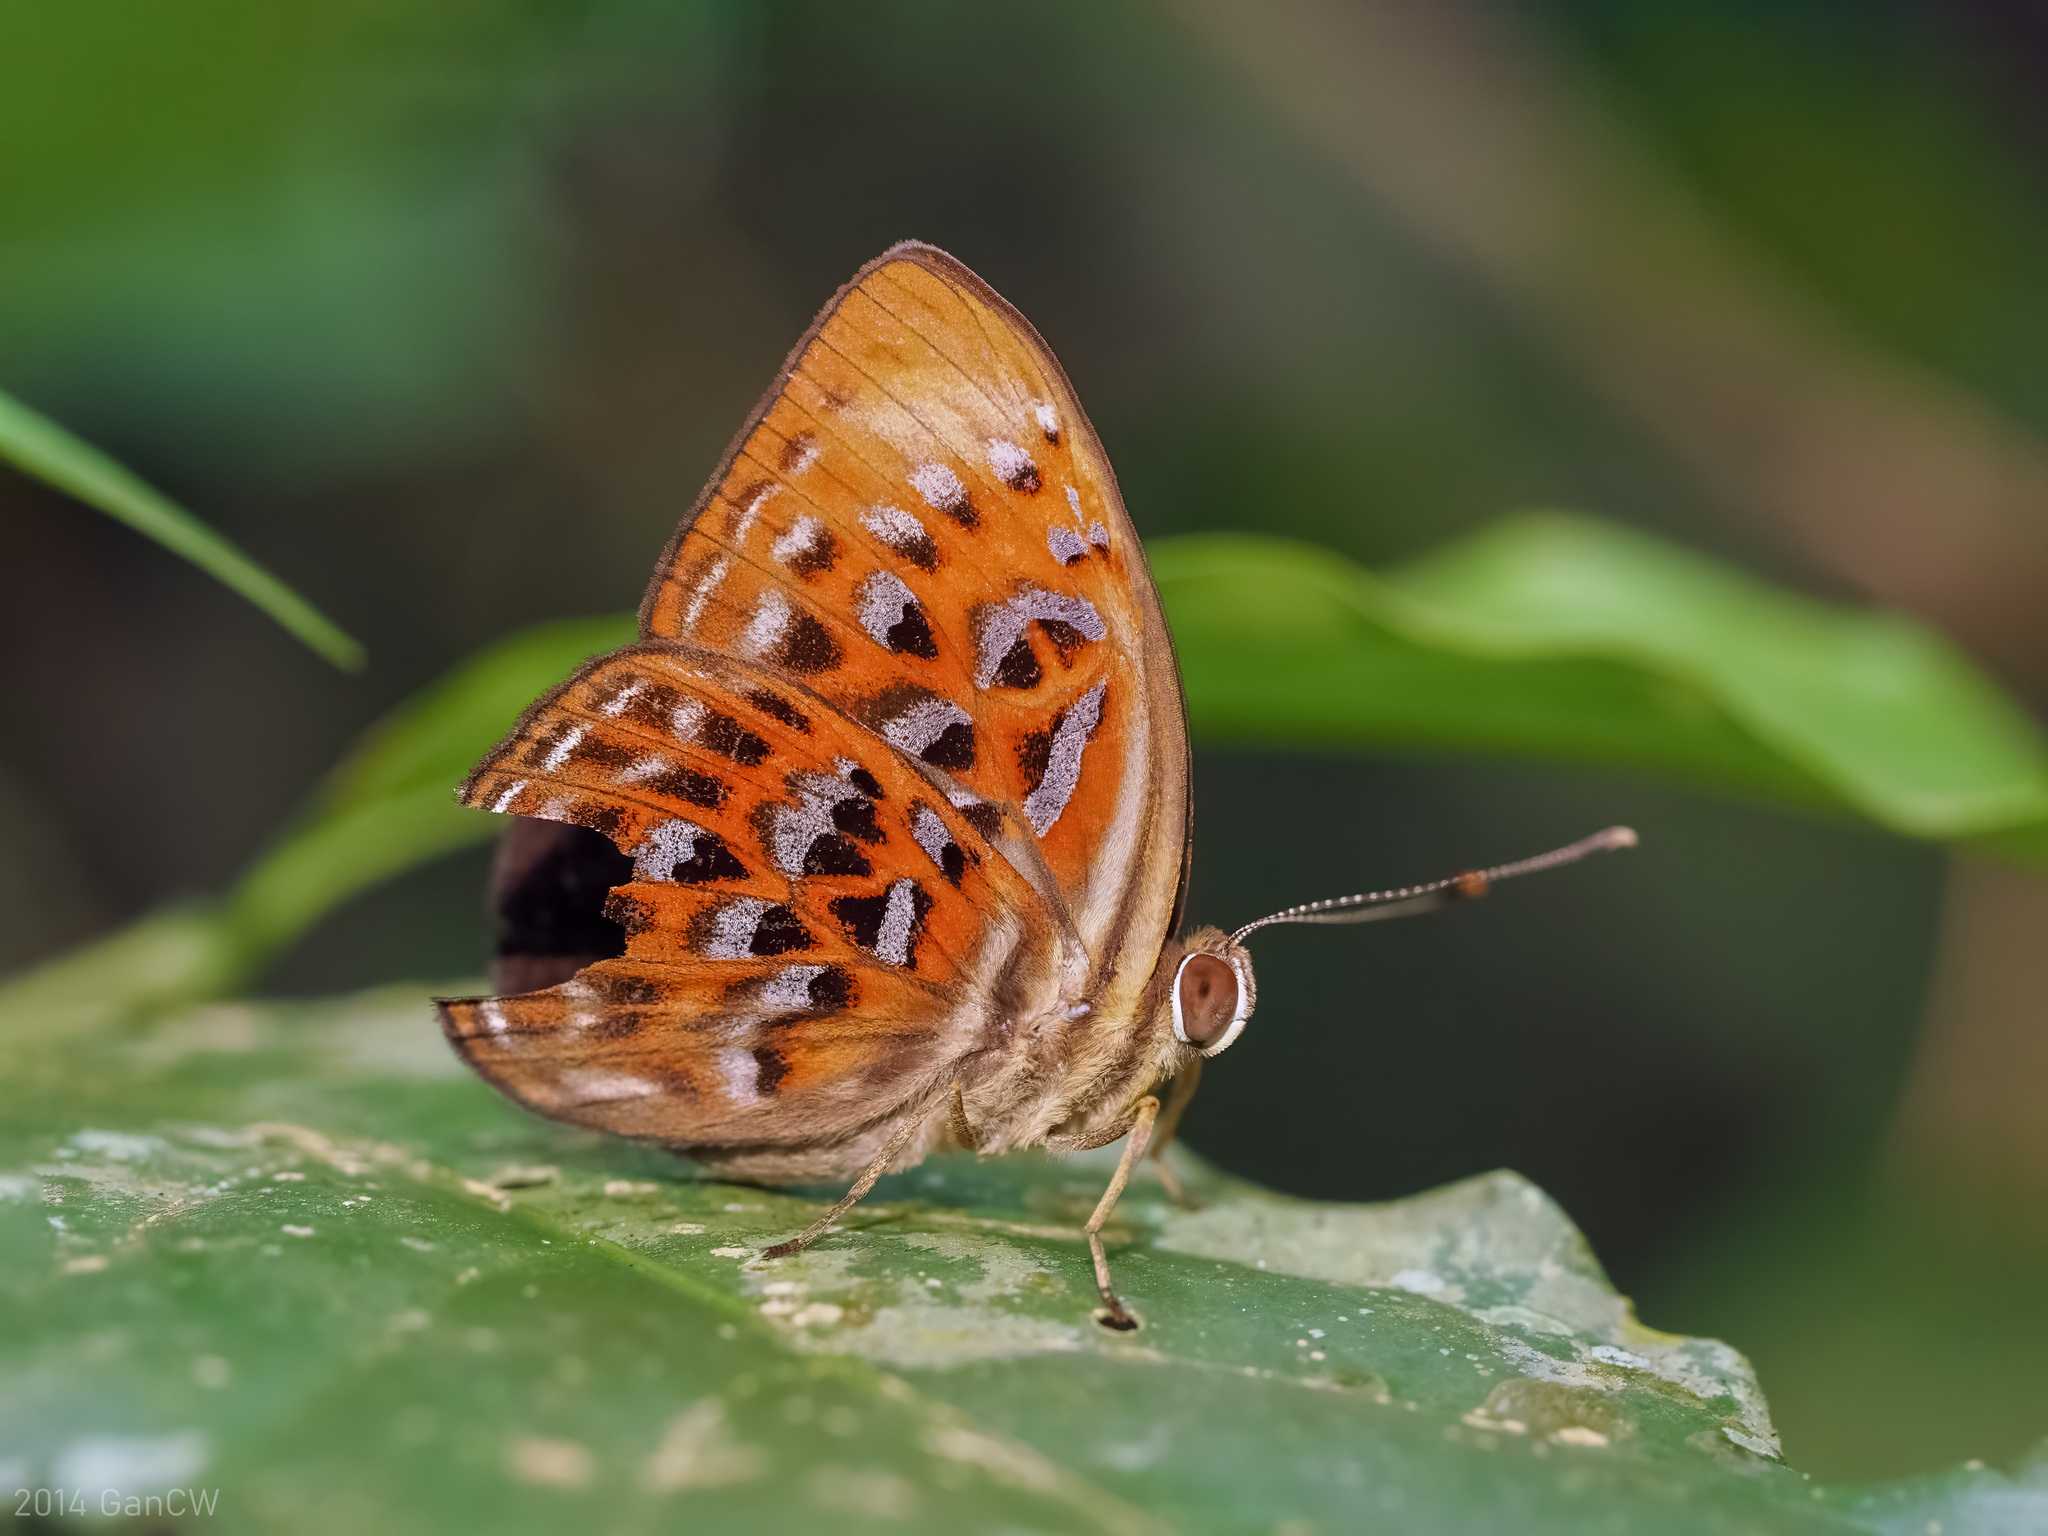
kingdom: Animalia
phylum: Arthropoda
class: Insecta
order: Lepidoptera
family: Erebidae
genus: Dysschema
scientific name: Dysschema
